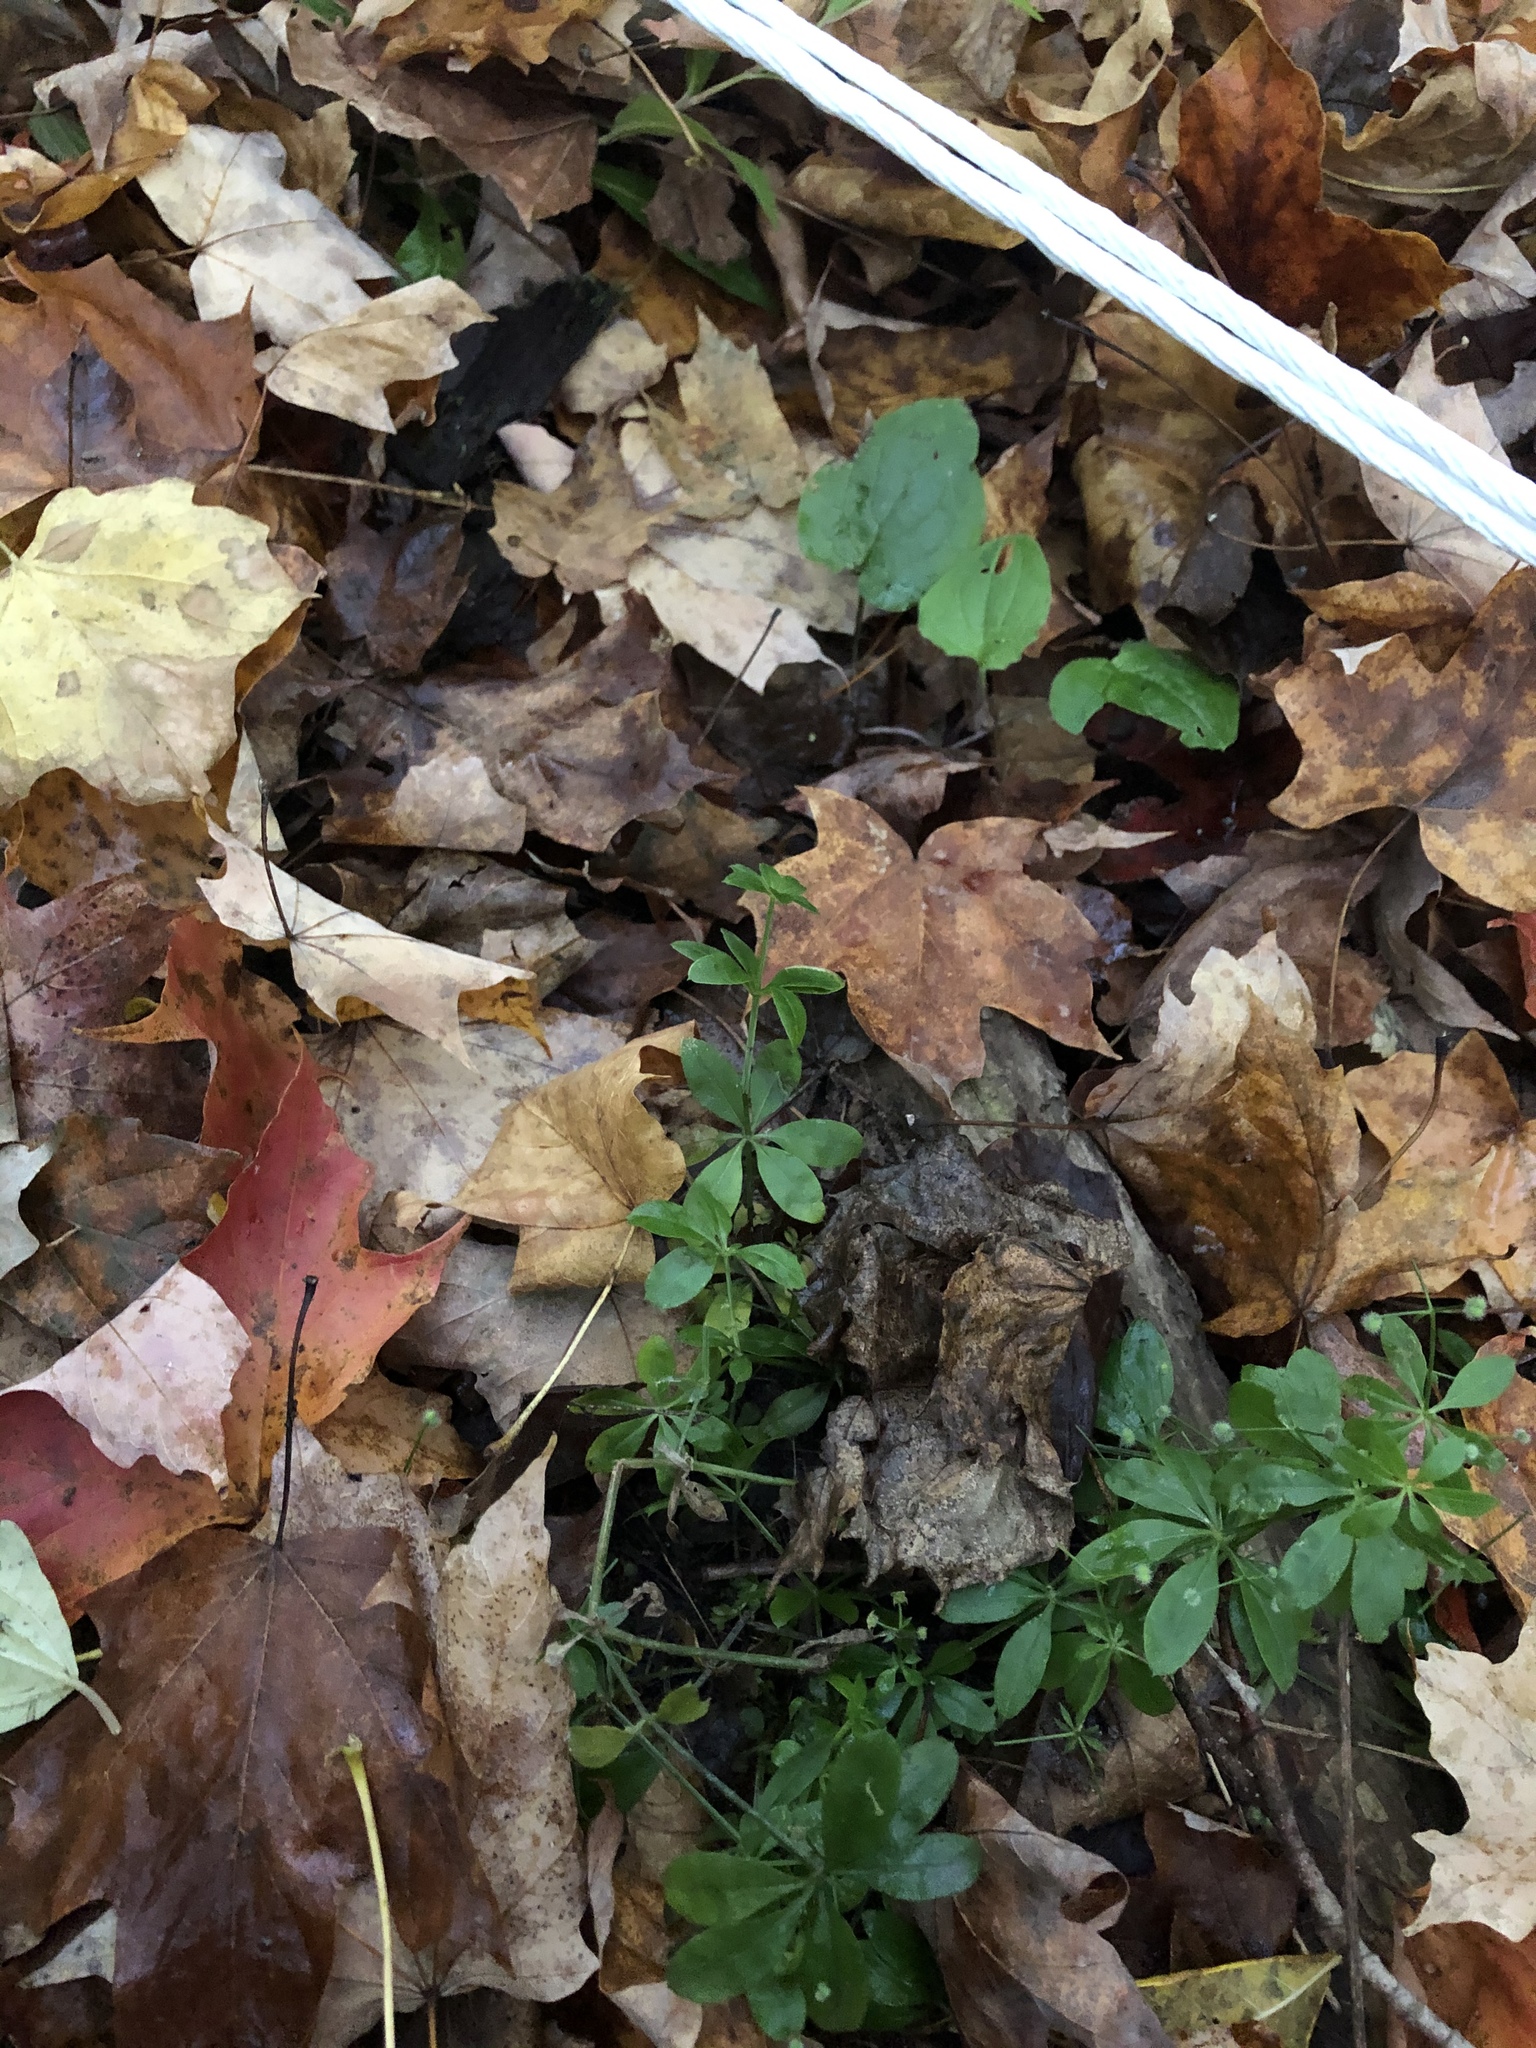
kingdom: Plantae
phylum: Tracheophyta
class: Magnoliopsida
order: Gentianales
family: Rubiaceae
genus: Galium
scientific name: Galium triflorum
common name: Fragrant bedstraw
